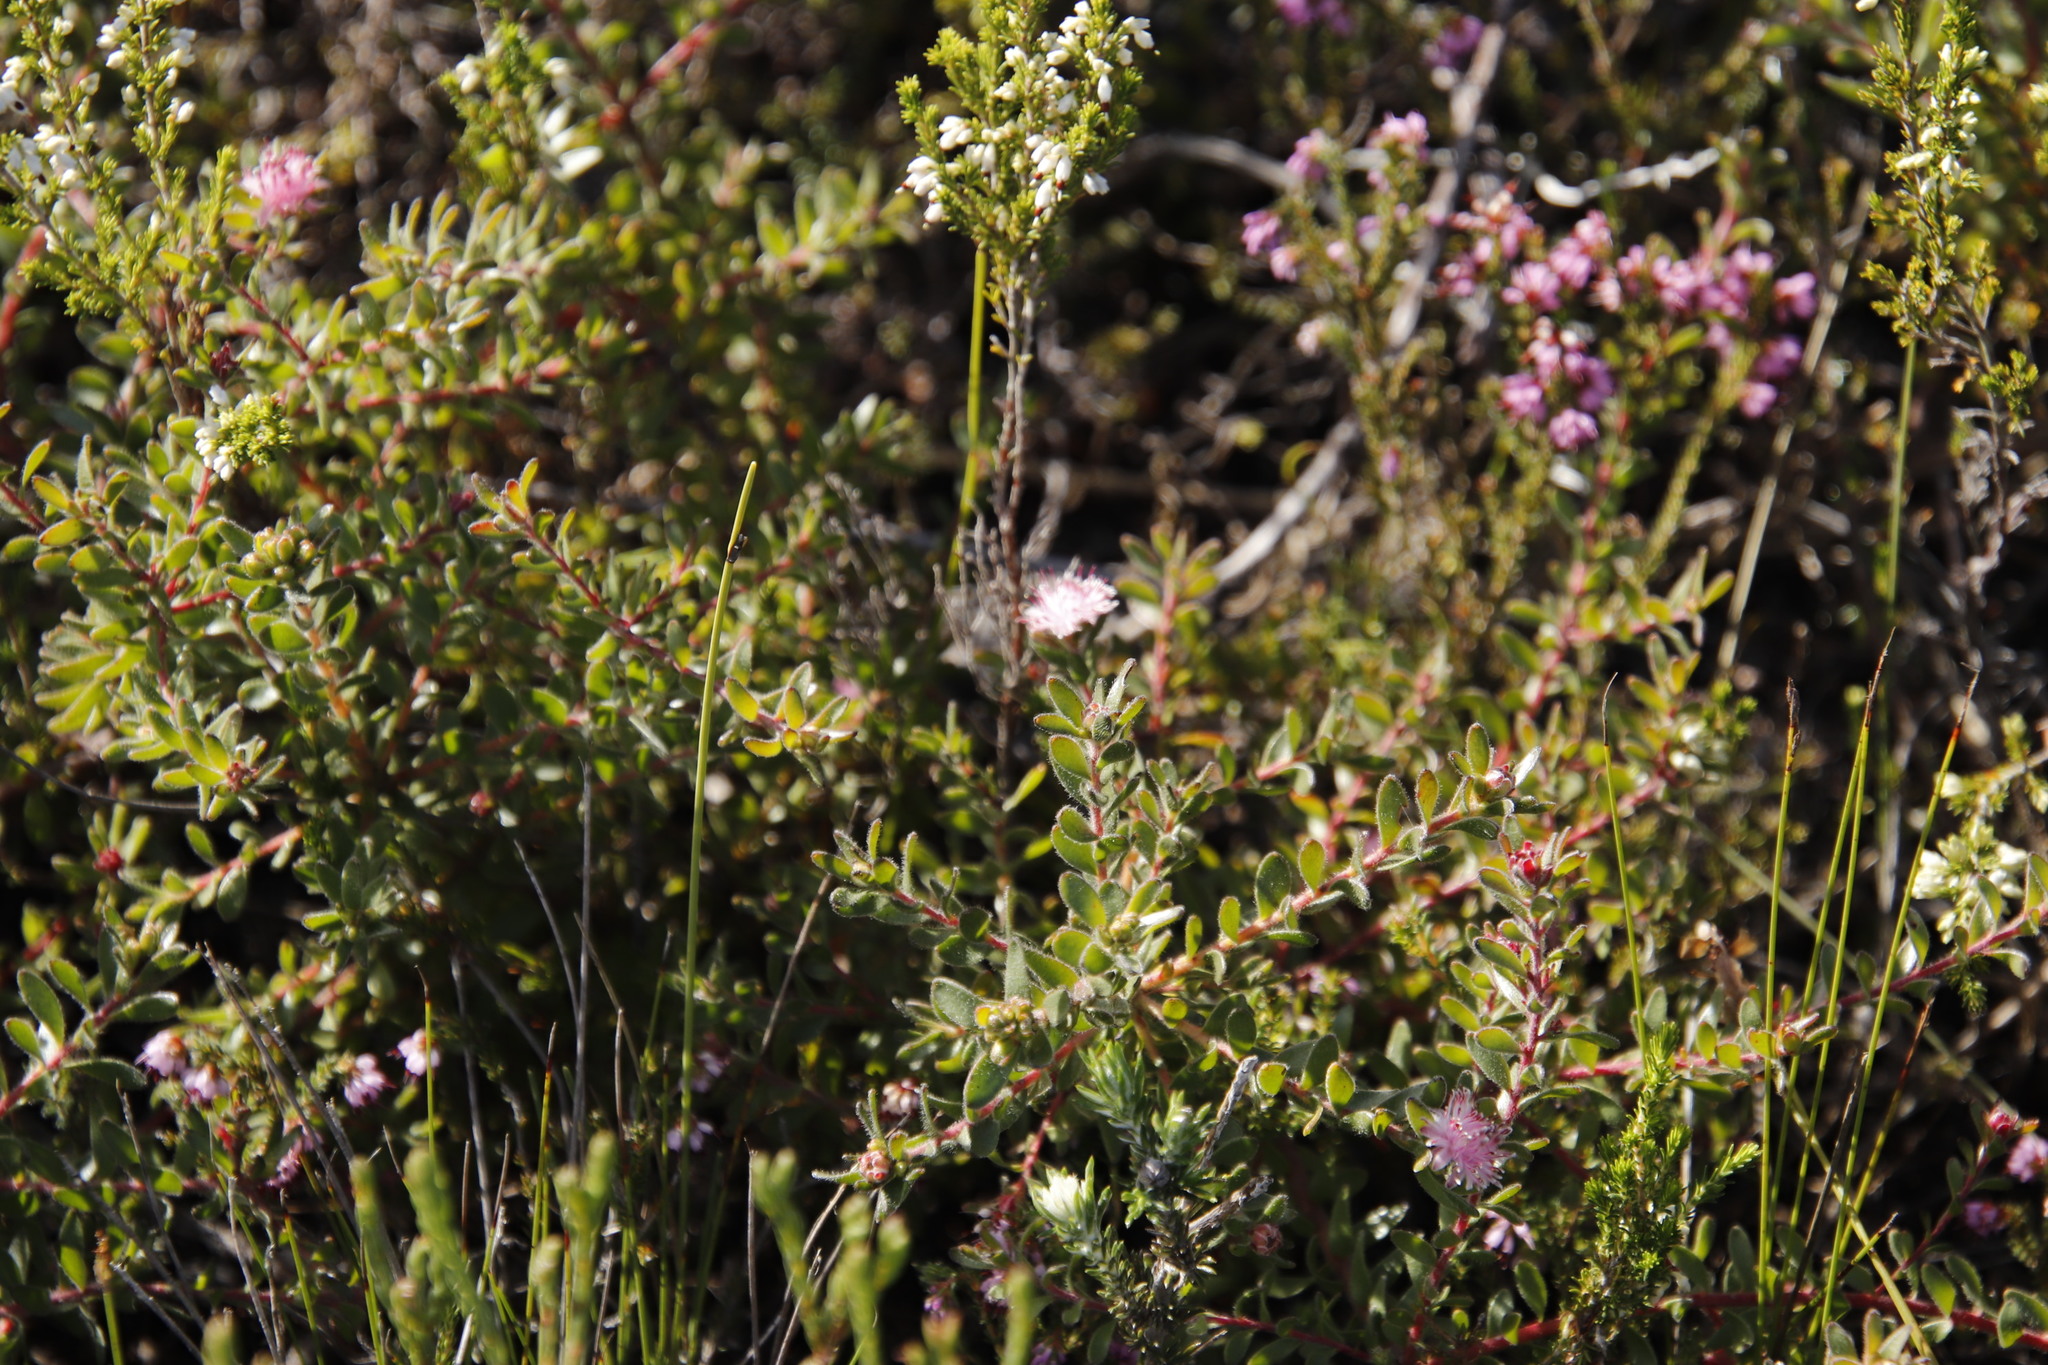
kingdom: Plantae
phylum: Tracheophyta
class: Magnoliopsida
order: Proteales
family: Proteaceae
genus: Diastella
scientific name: Diastella divaricata
